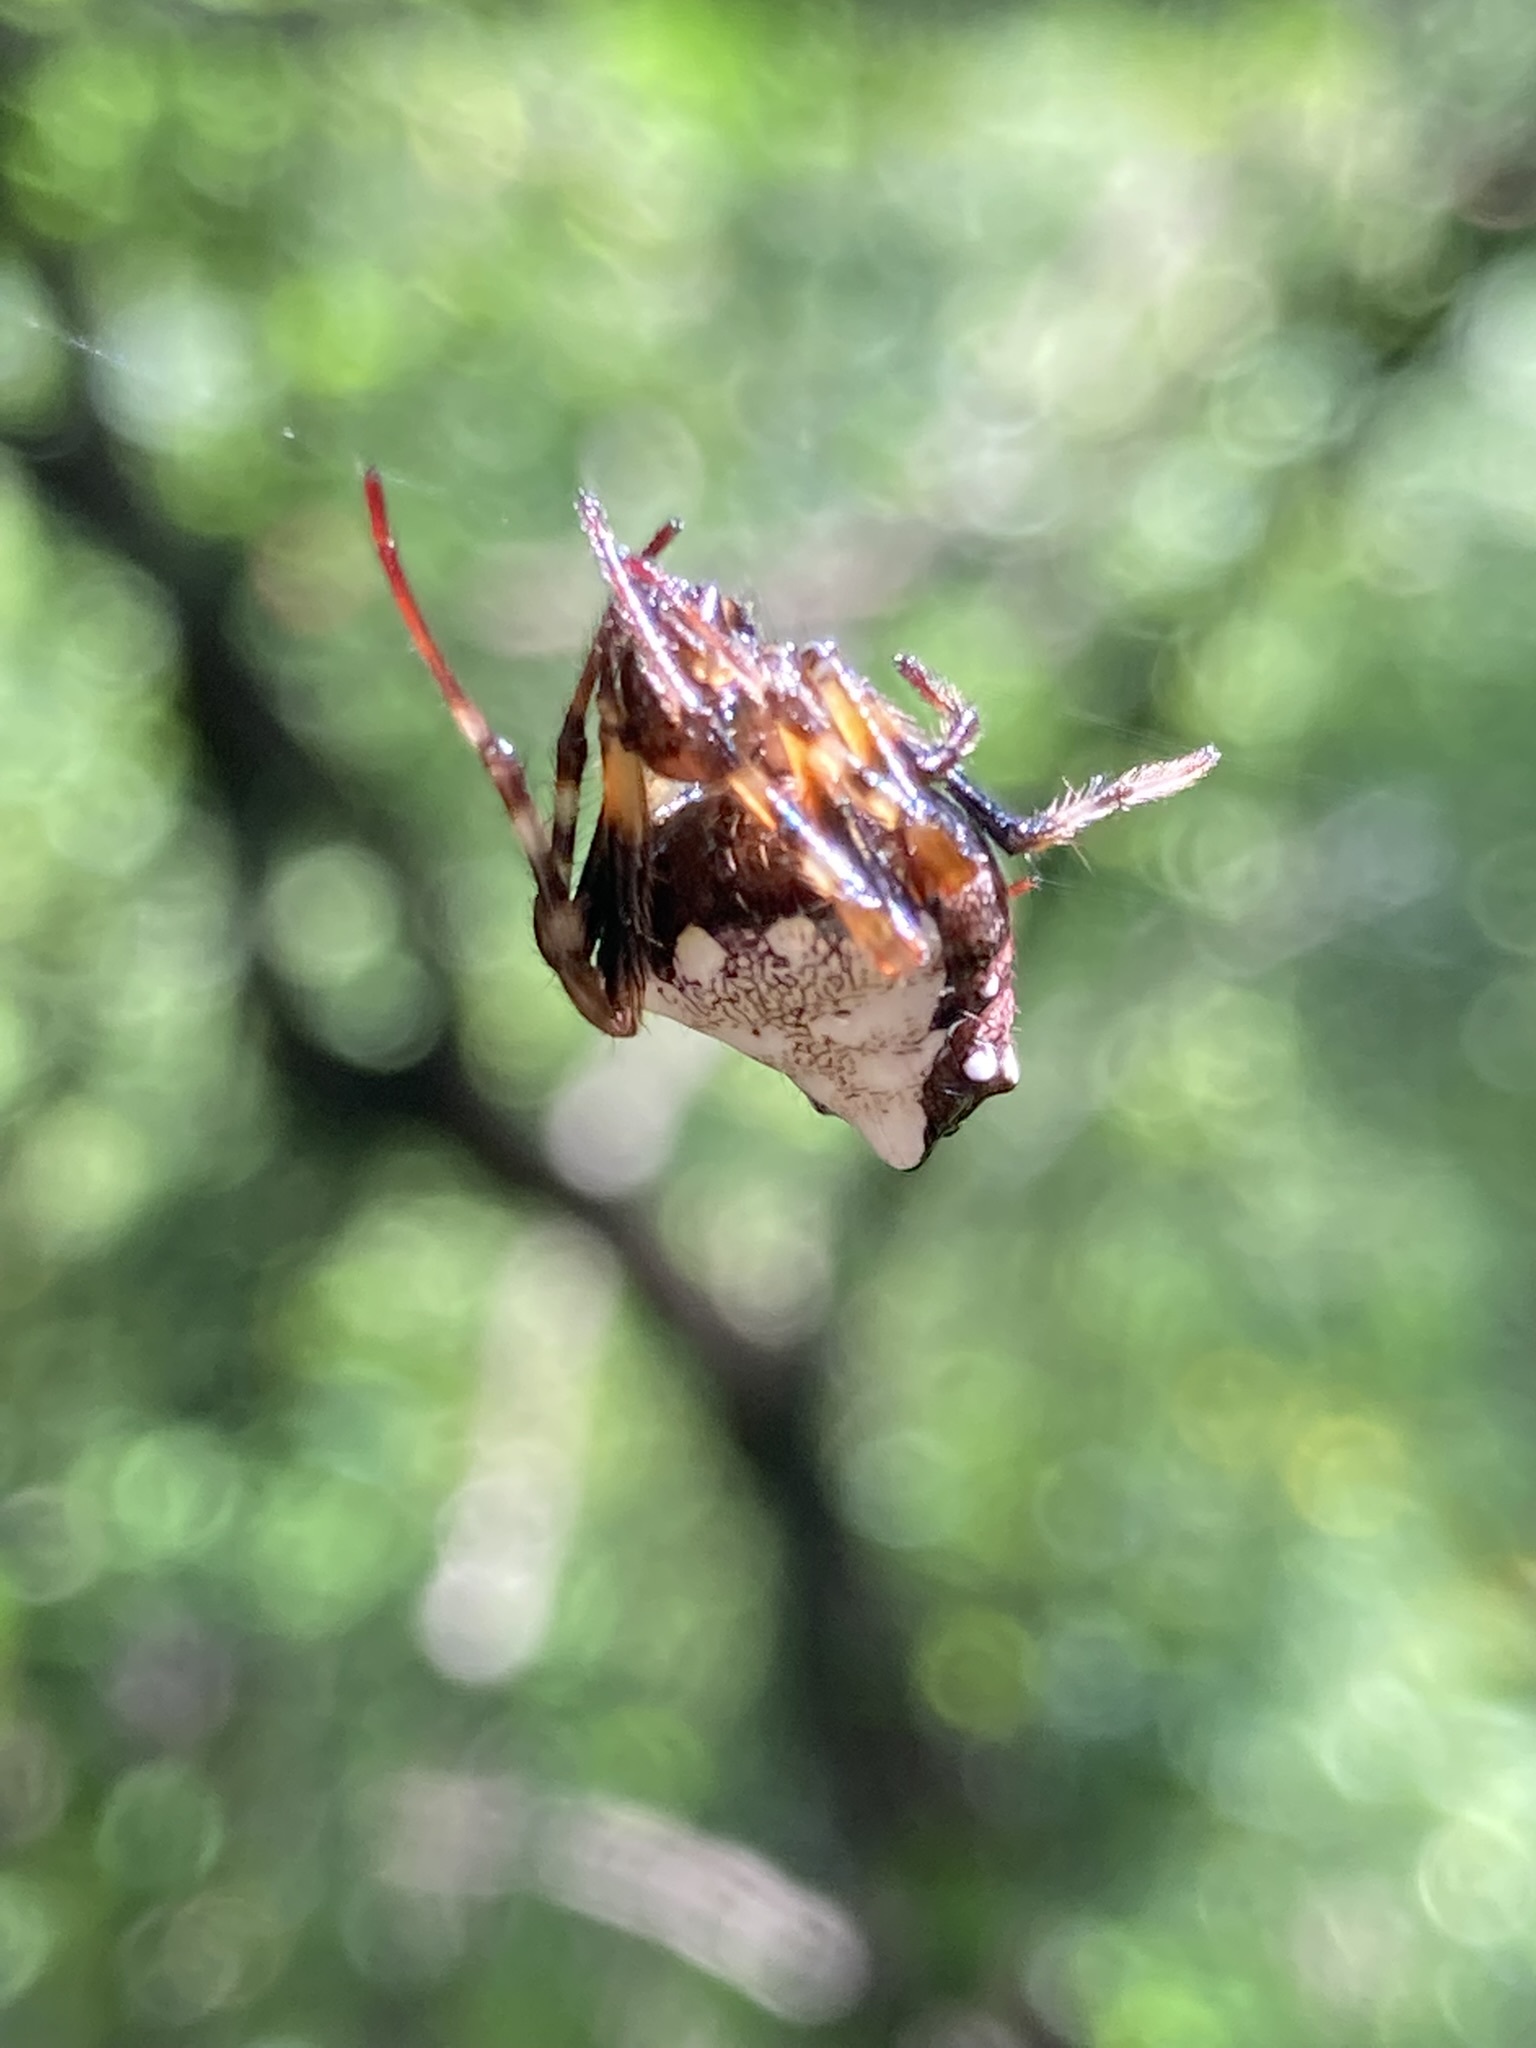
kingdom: Animalia
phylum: Arthropoda
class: Arachnida
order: Araneae
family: Araneidae
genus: Verrucosa
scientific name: Verrucosa arenata
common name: Orb weavers
